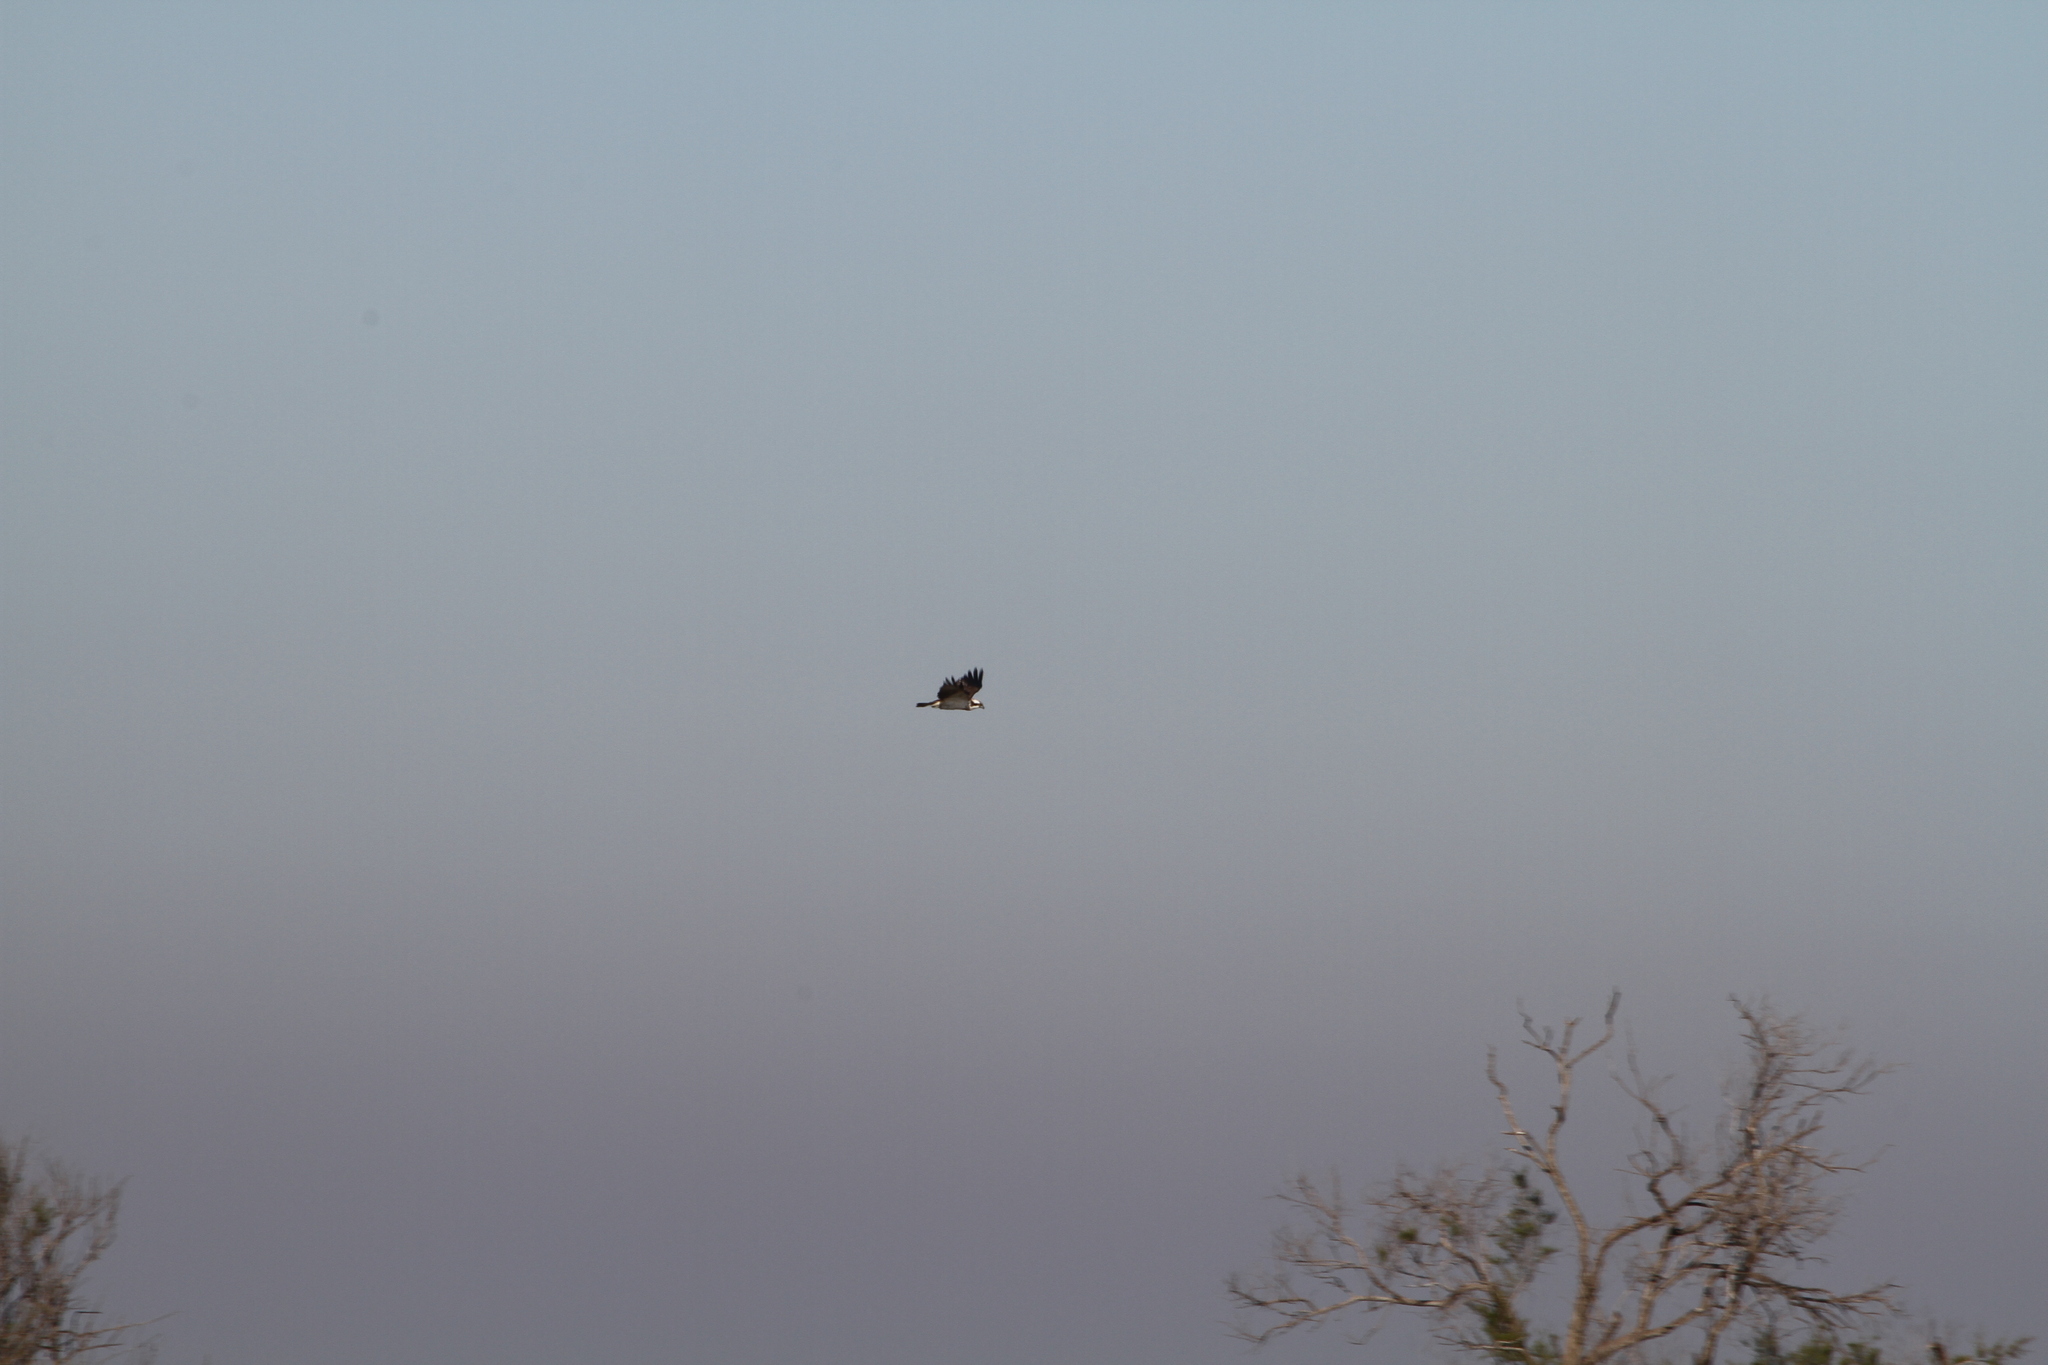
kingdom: Animalia
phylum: Chordata
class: Aves
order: Accipitriformes
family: Pandionidae
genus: Pandion
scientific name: Pandion haliaetus
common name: Osprey
